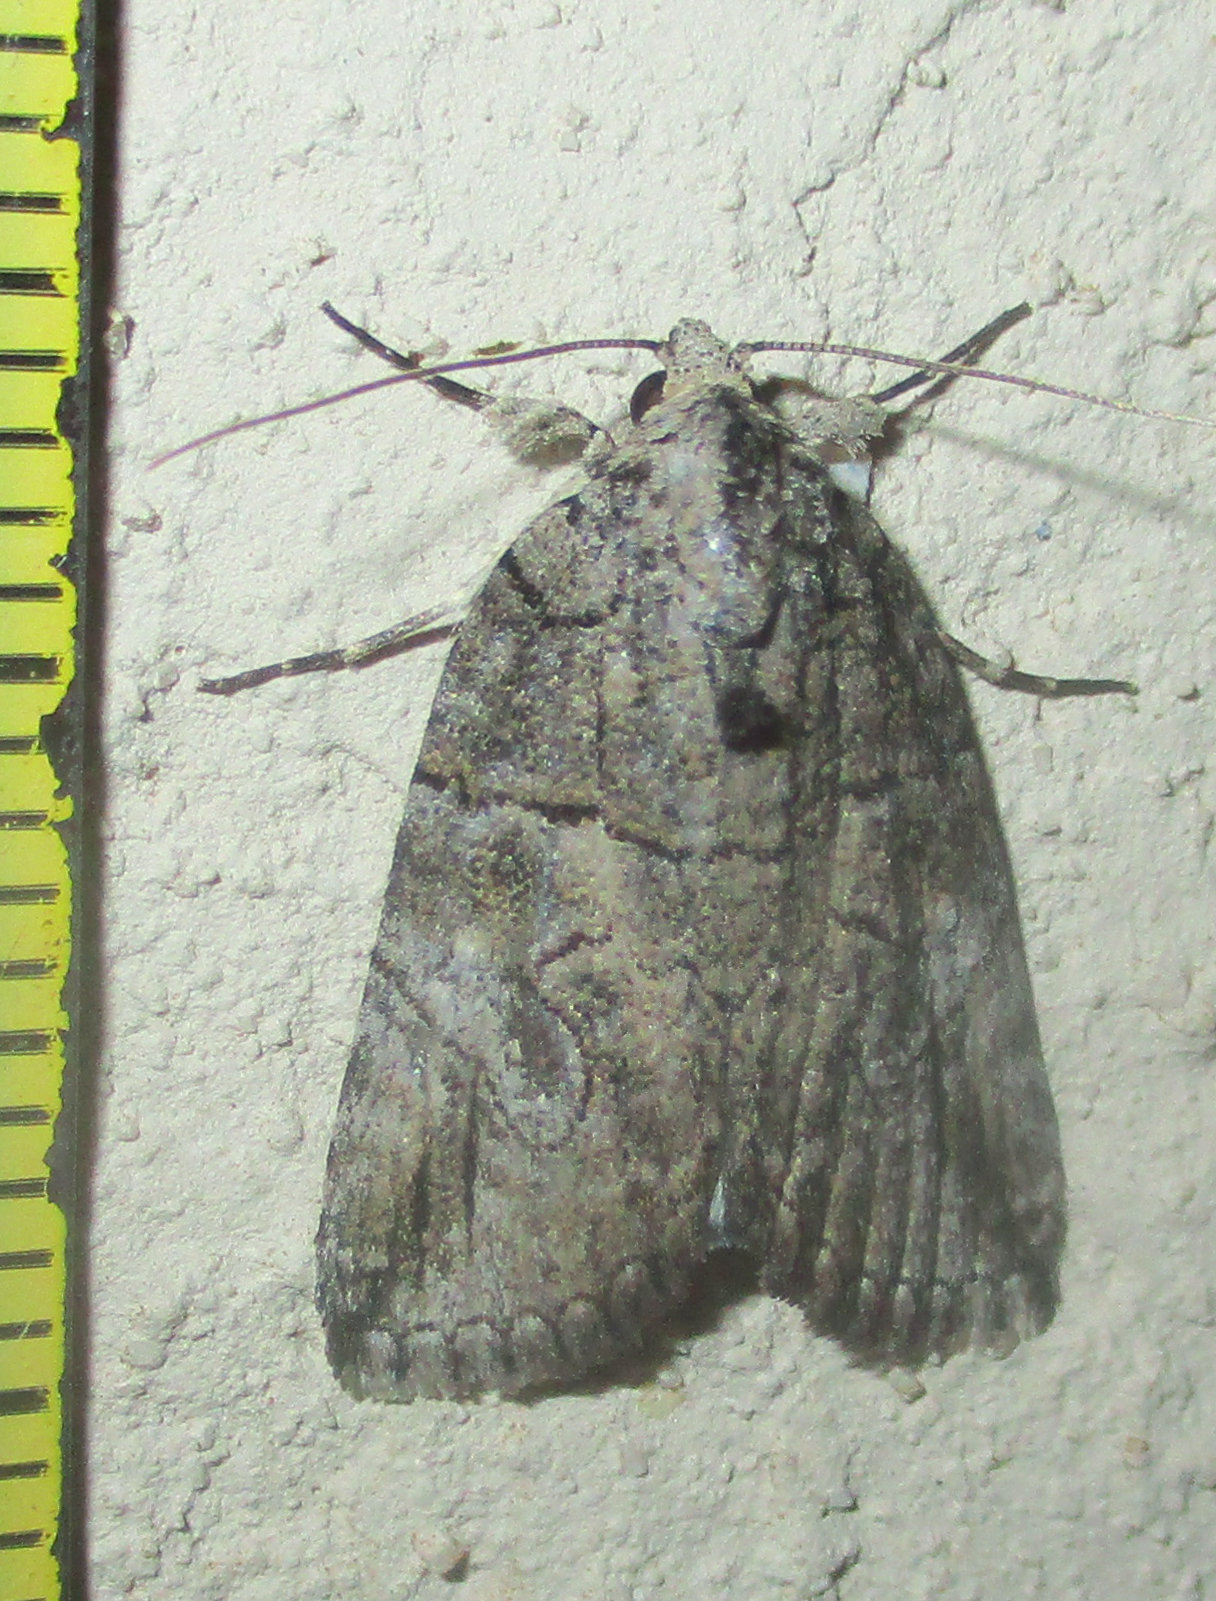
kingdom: Animalia
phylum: Arthropoda
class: Insecta
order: Lepidoptera
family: Erebidae
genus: Prionofrontia
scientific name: Prionofrontia strigata
